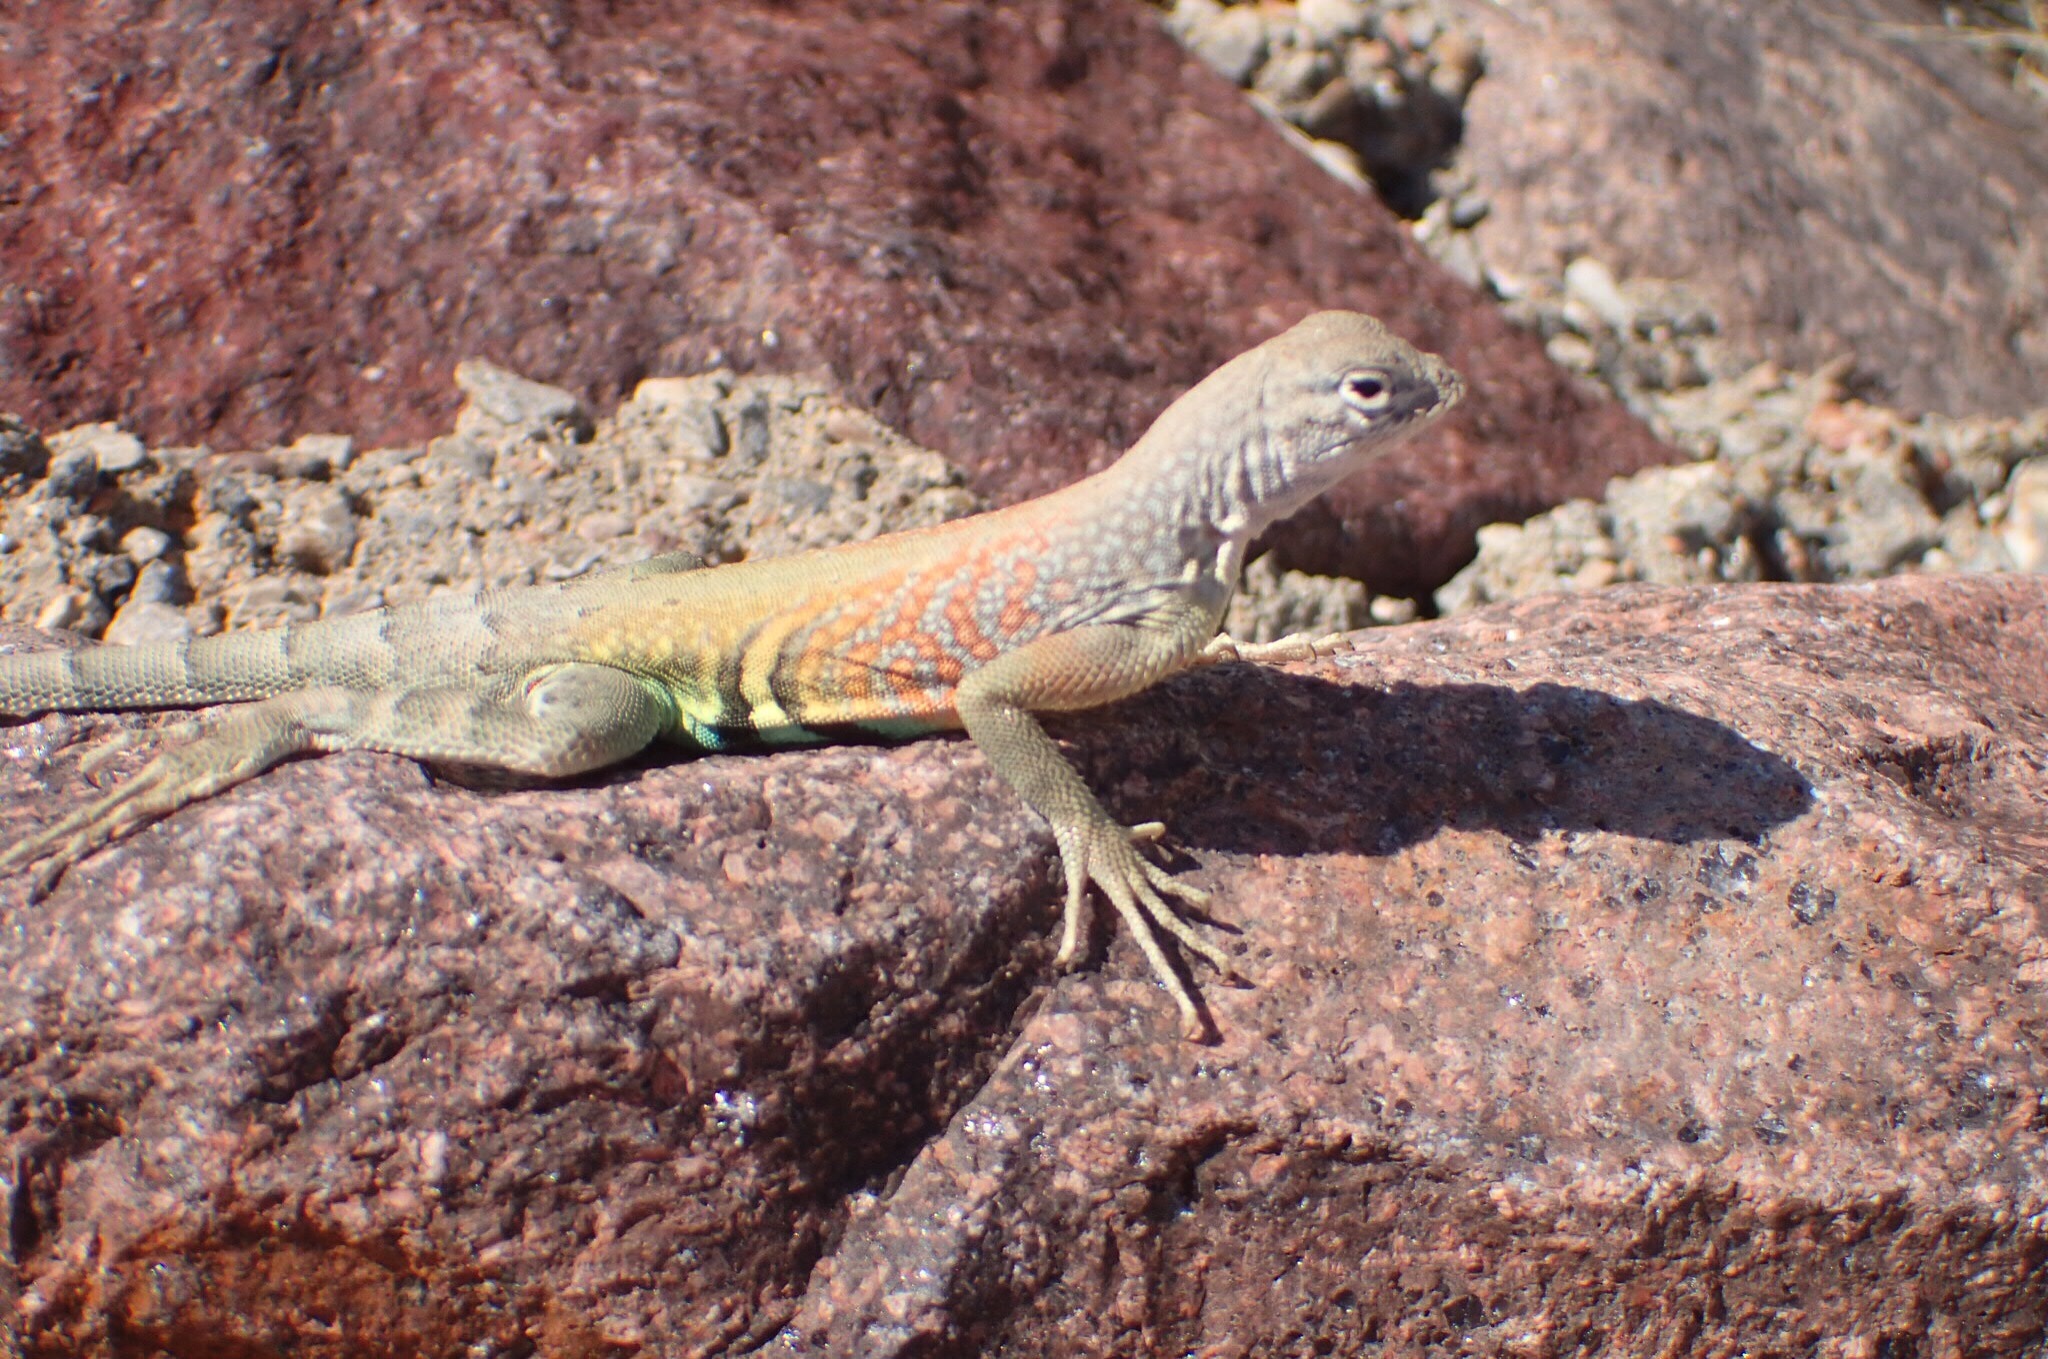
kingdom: Animalia
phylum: Chordata
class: Squamata
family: Phrynosomatidae
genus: Cophosaurus
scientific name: Cophosaurus texanus
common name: Greater earless lizard
